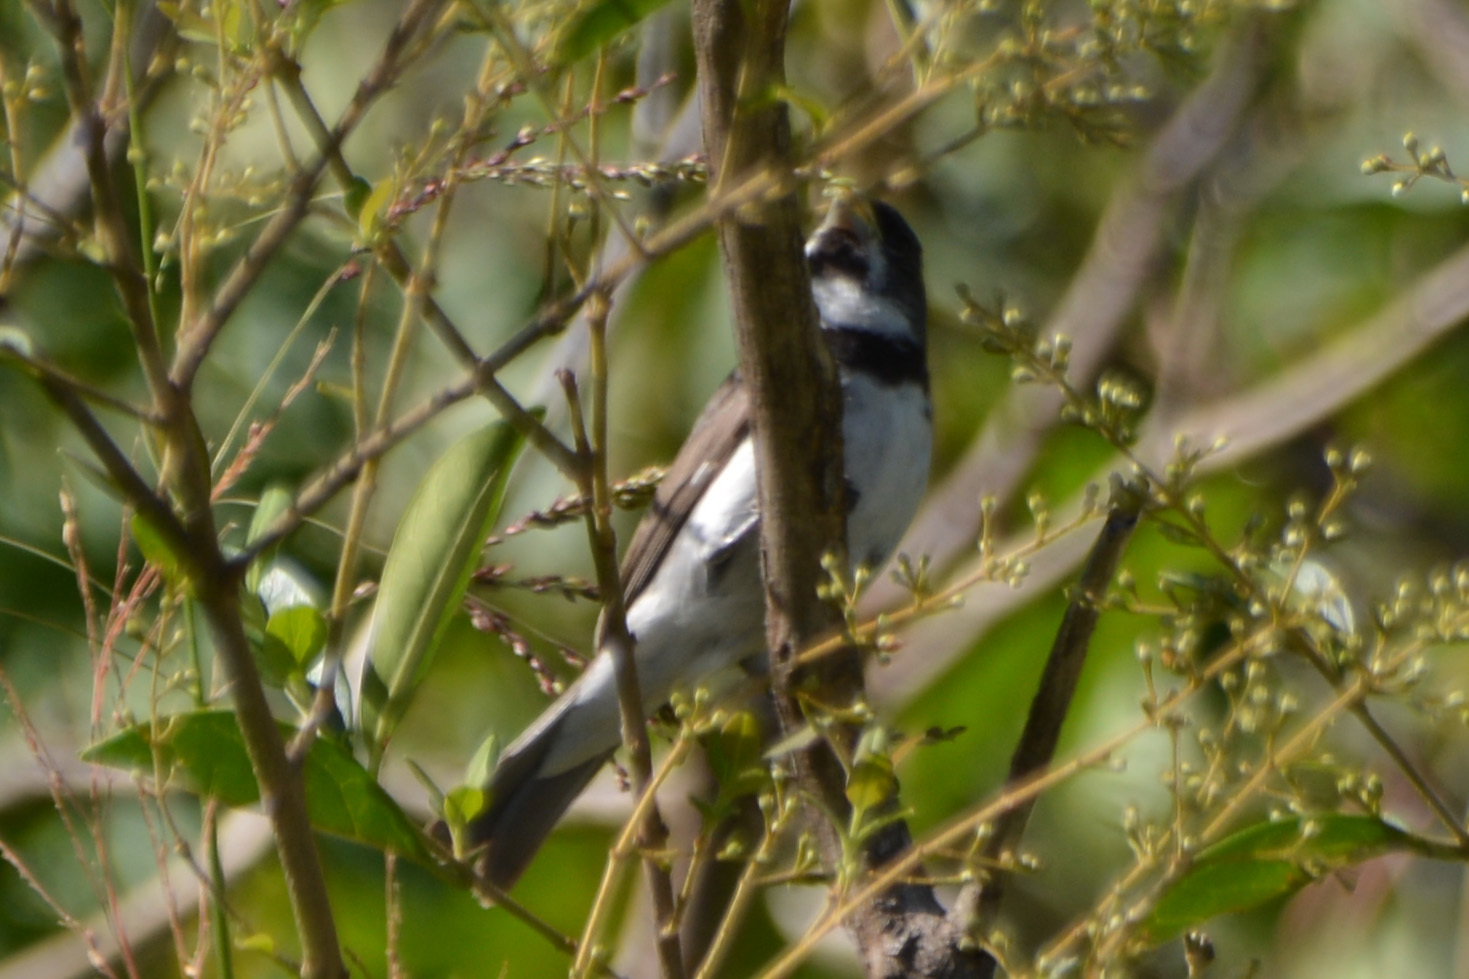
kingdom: Animalia
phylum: Chordata
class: Aves
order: Passeriformes
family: Thraupidae
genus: Sporophila
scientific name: Sporophila caerulescens
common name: Double-collared seedeater
